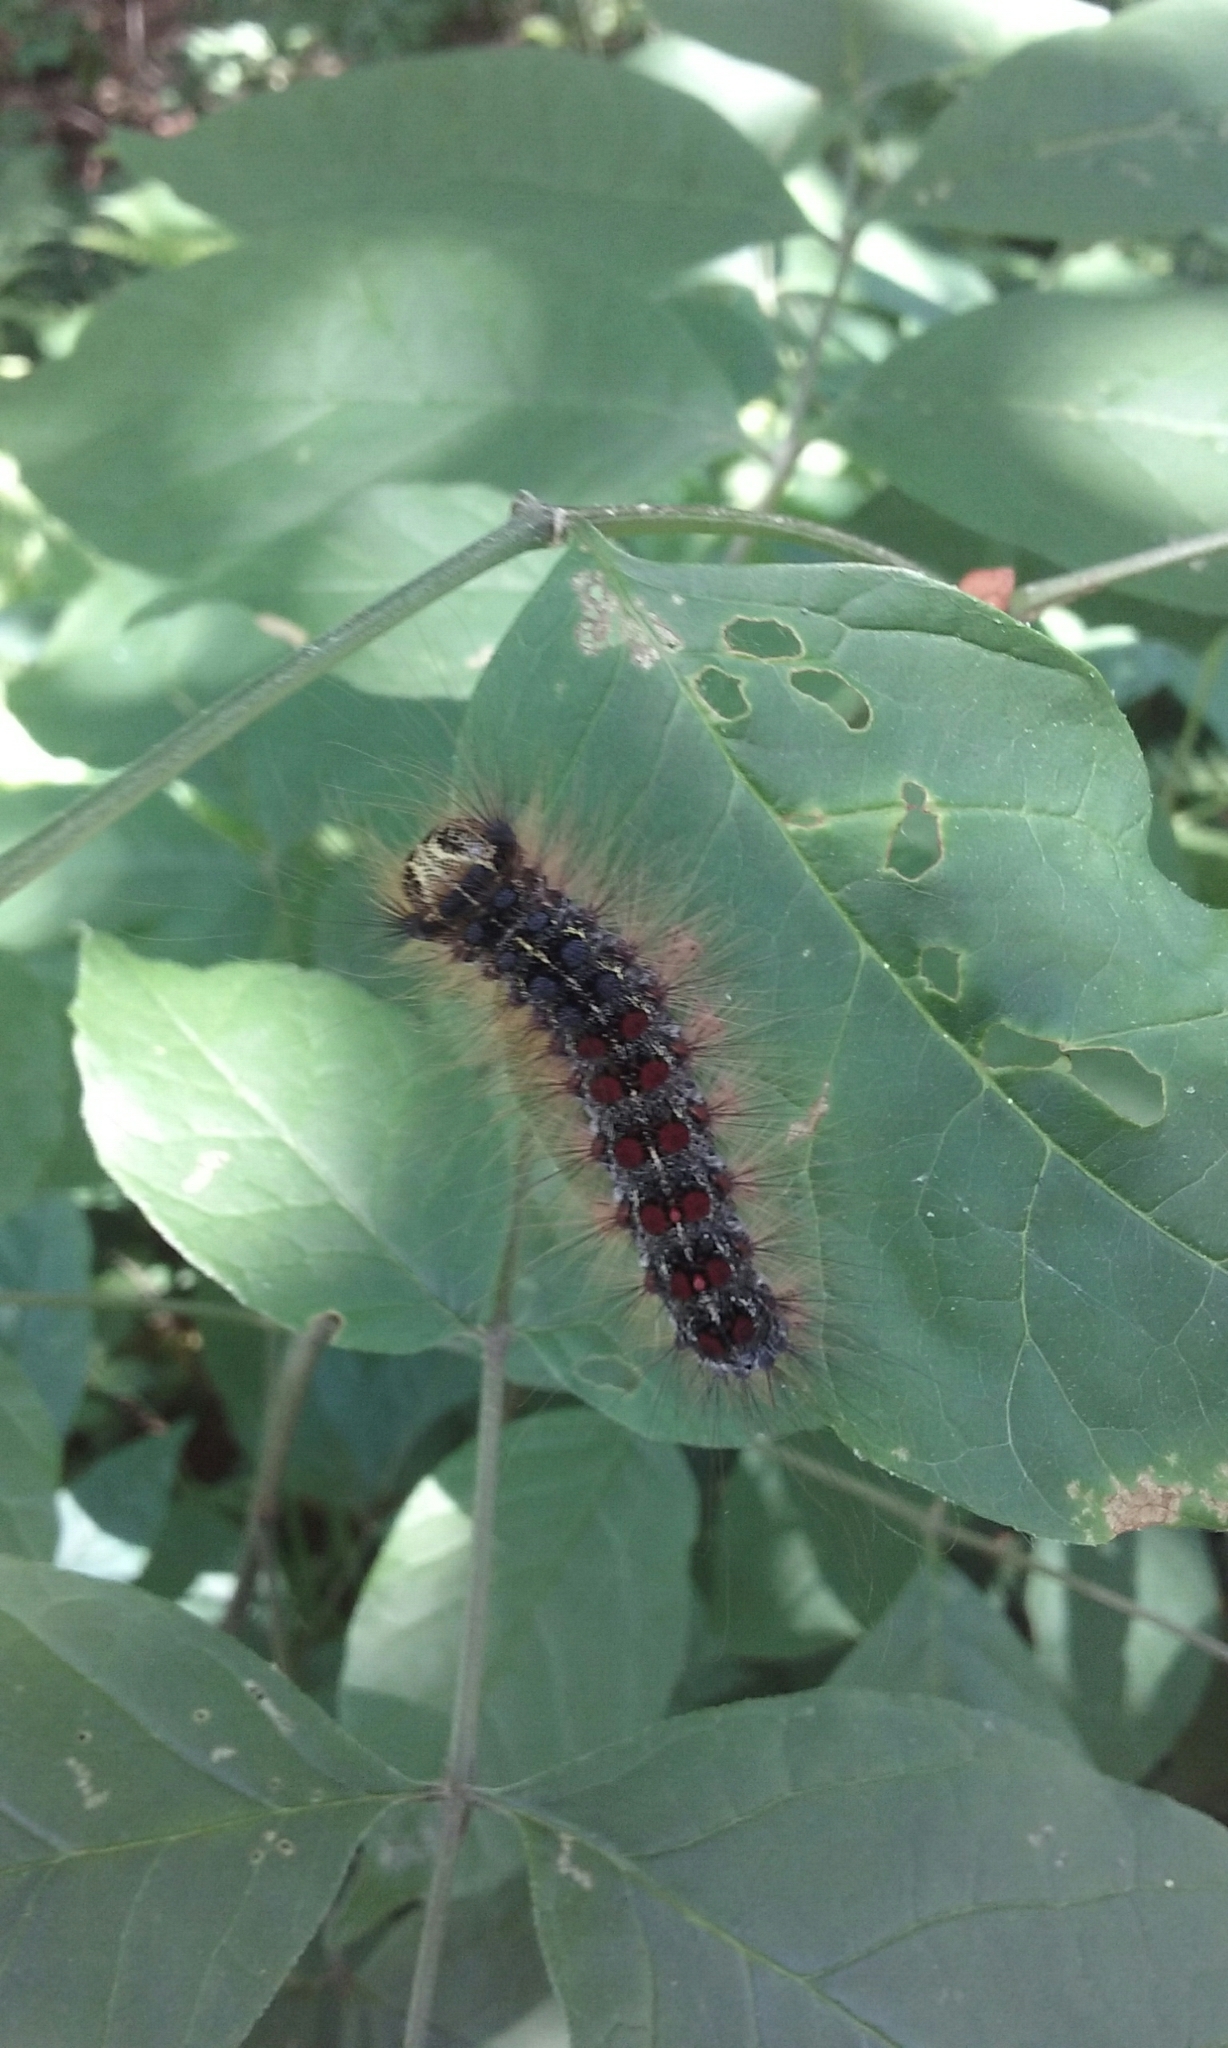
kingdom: Animalia
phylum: Arthropoda
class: Insecta
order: Lepidoptera
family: Erebidae
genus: Lymantria
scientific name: Lymantria dispar
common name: Gypsy moth
